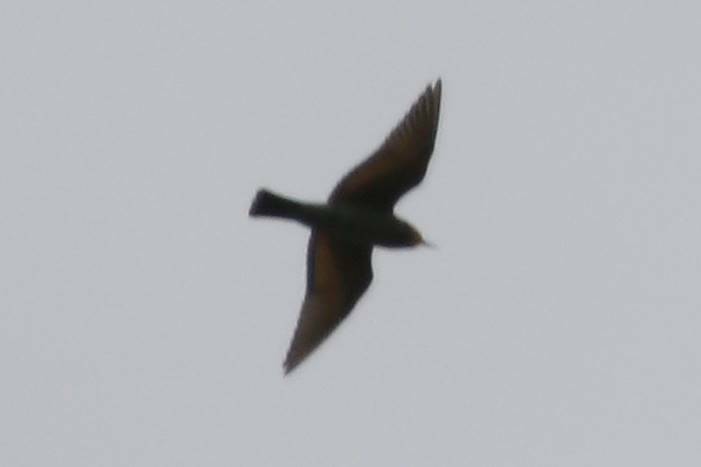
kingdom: Animalia
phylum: Chordata
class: Aves
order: Coraciiformes
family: Meropidae
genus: Merops
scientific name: Merops apiaster
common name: European bee-eater
